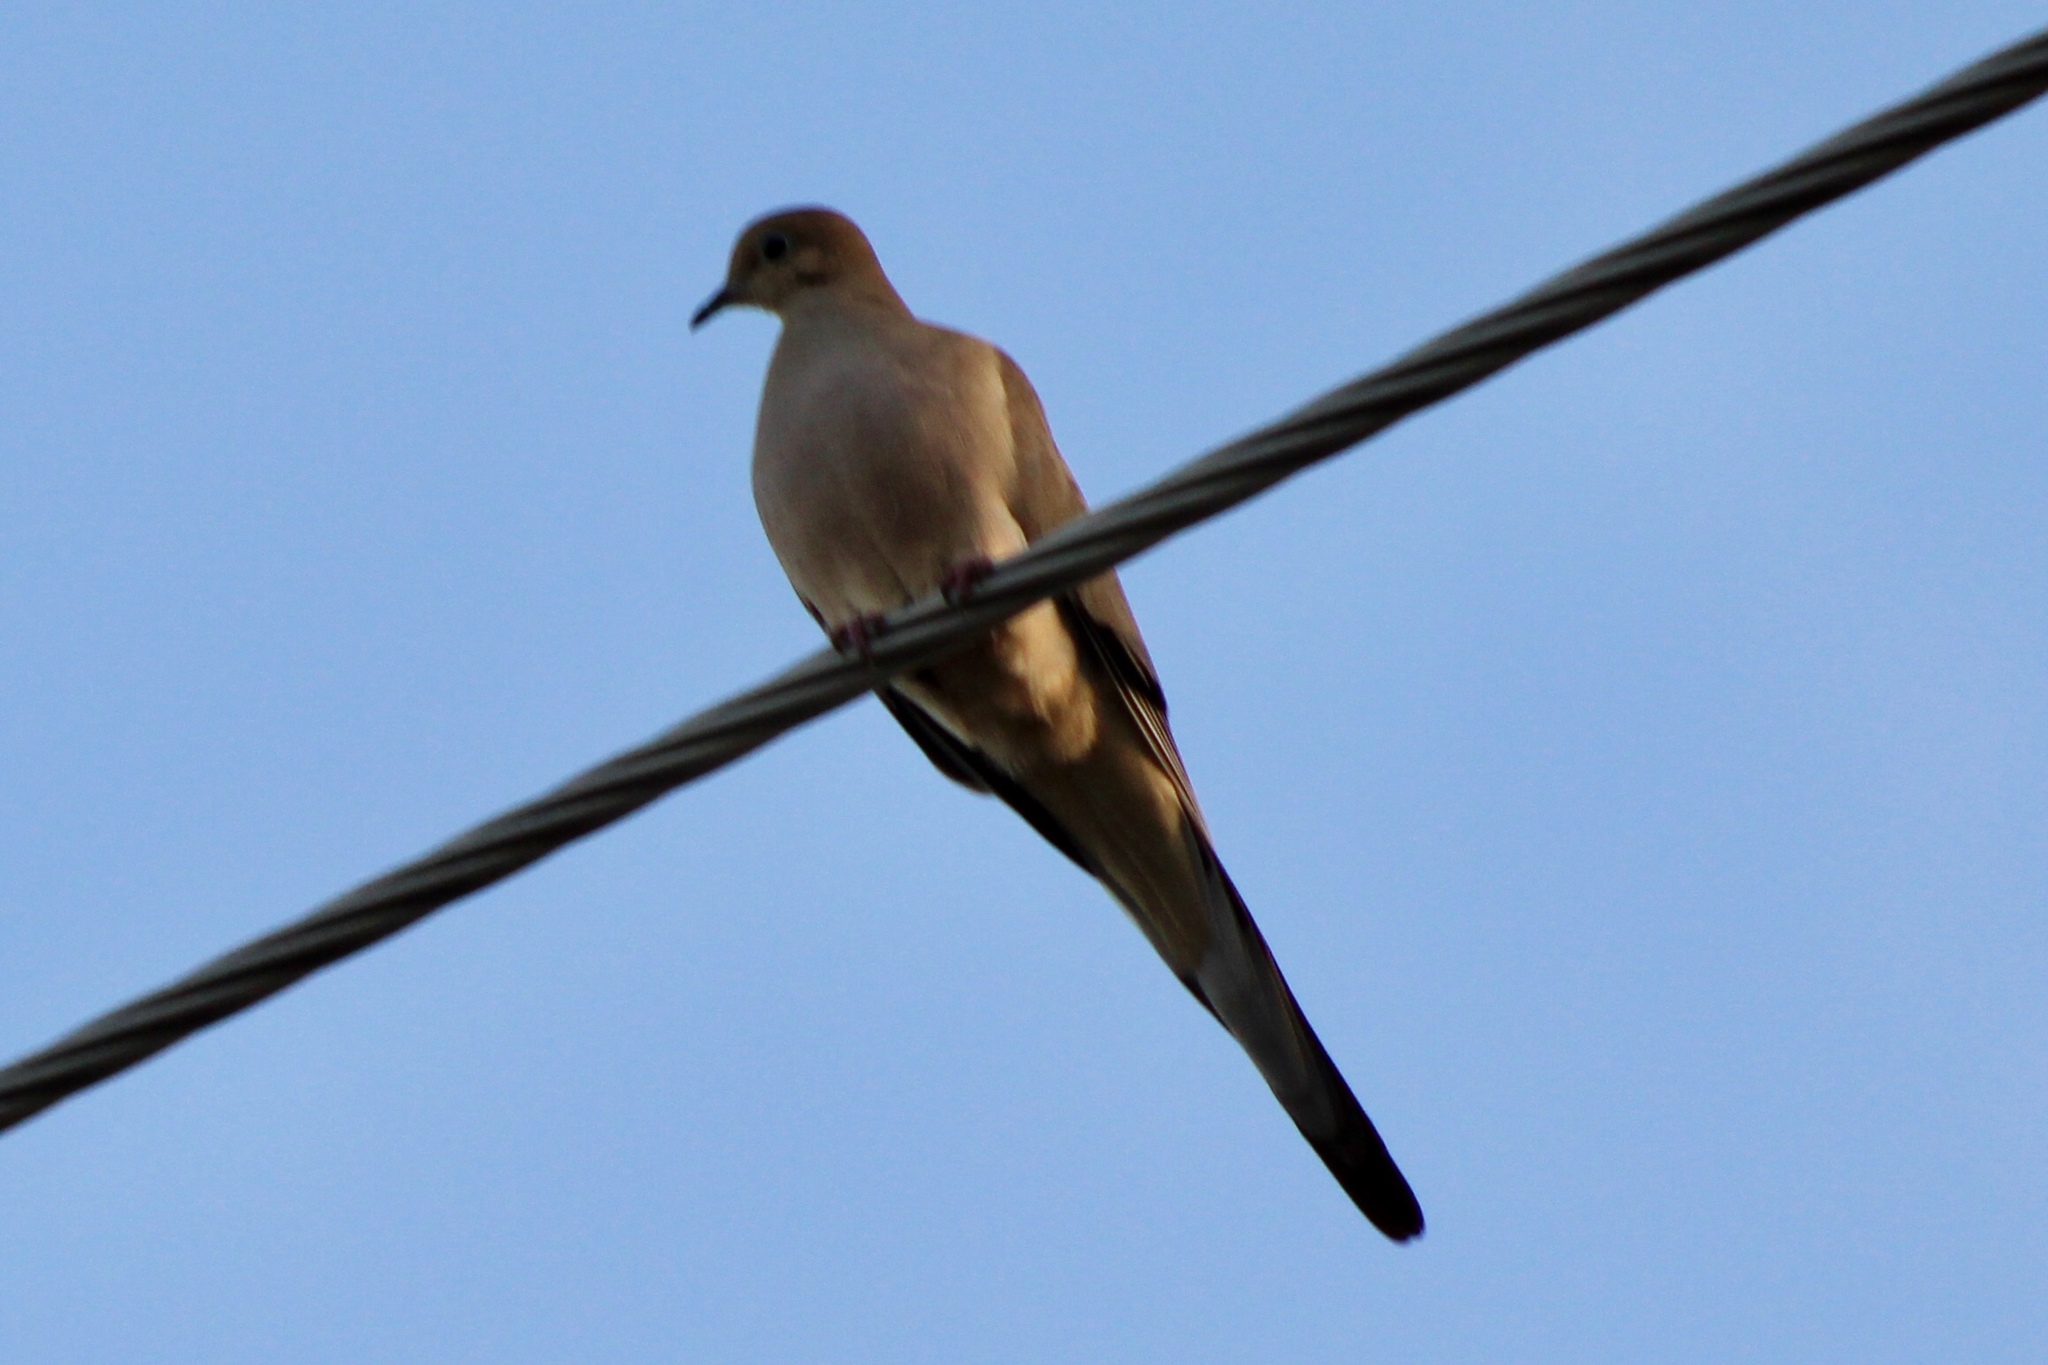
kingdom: Animalia
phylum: Chordata
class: Aves
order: Columbiformes
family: Columbidae
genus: Zenaida
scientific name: Zenaida macroura
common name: Mourning dove
